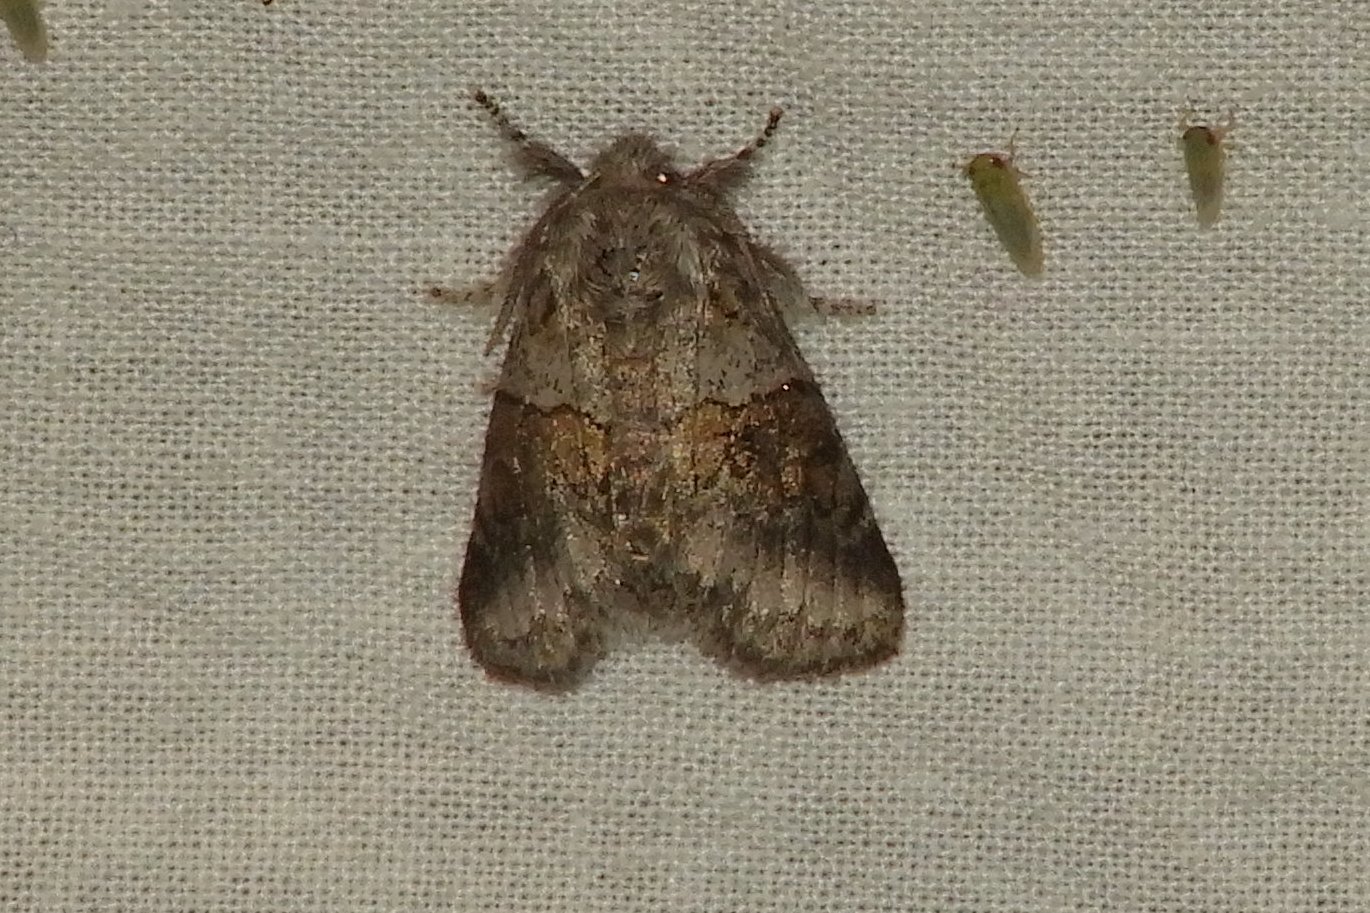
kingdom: Animalia
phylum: Arthropoda
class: Insecta
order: Lepidoptera
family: Notodontidae
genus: Gluphisia
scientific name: Gluphisia septentrionis
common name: Common gluphisia
